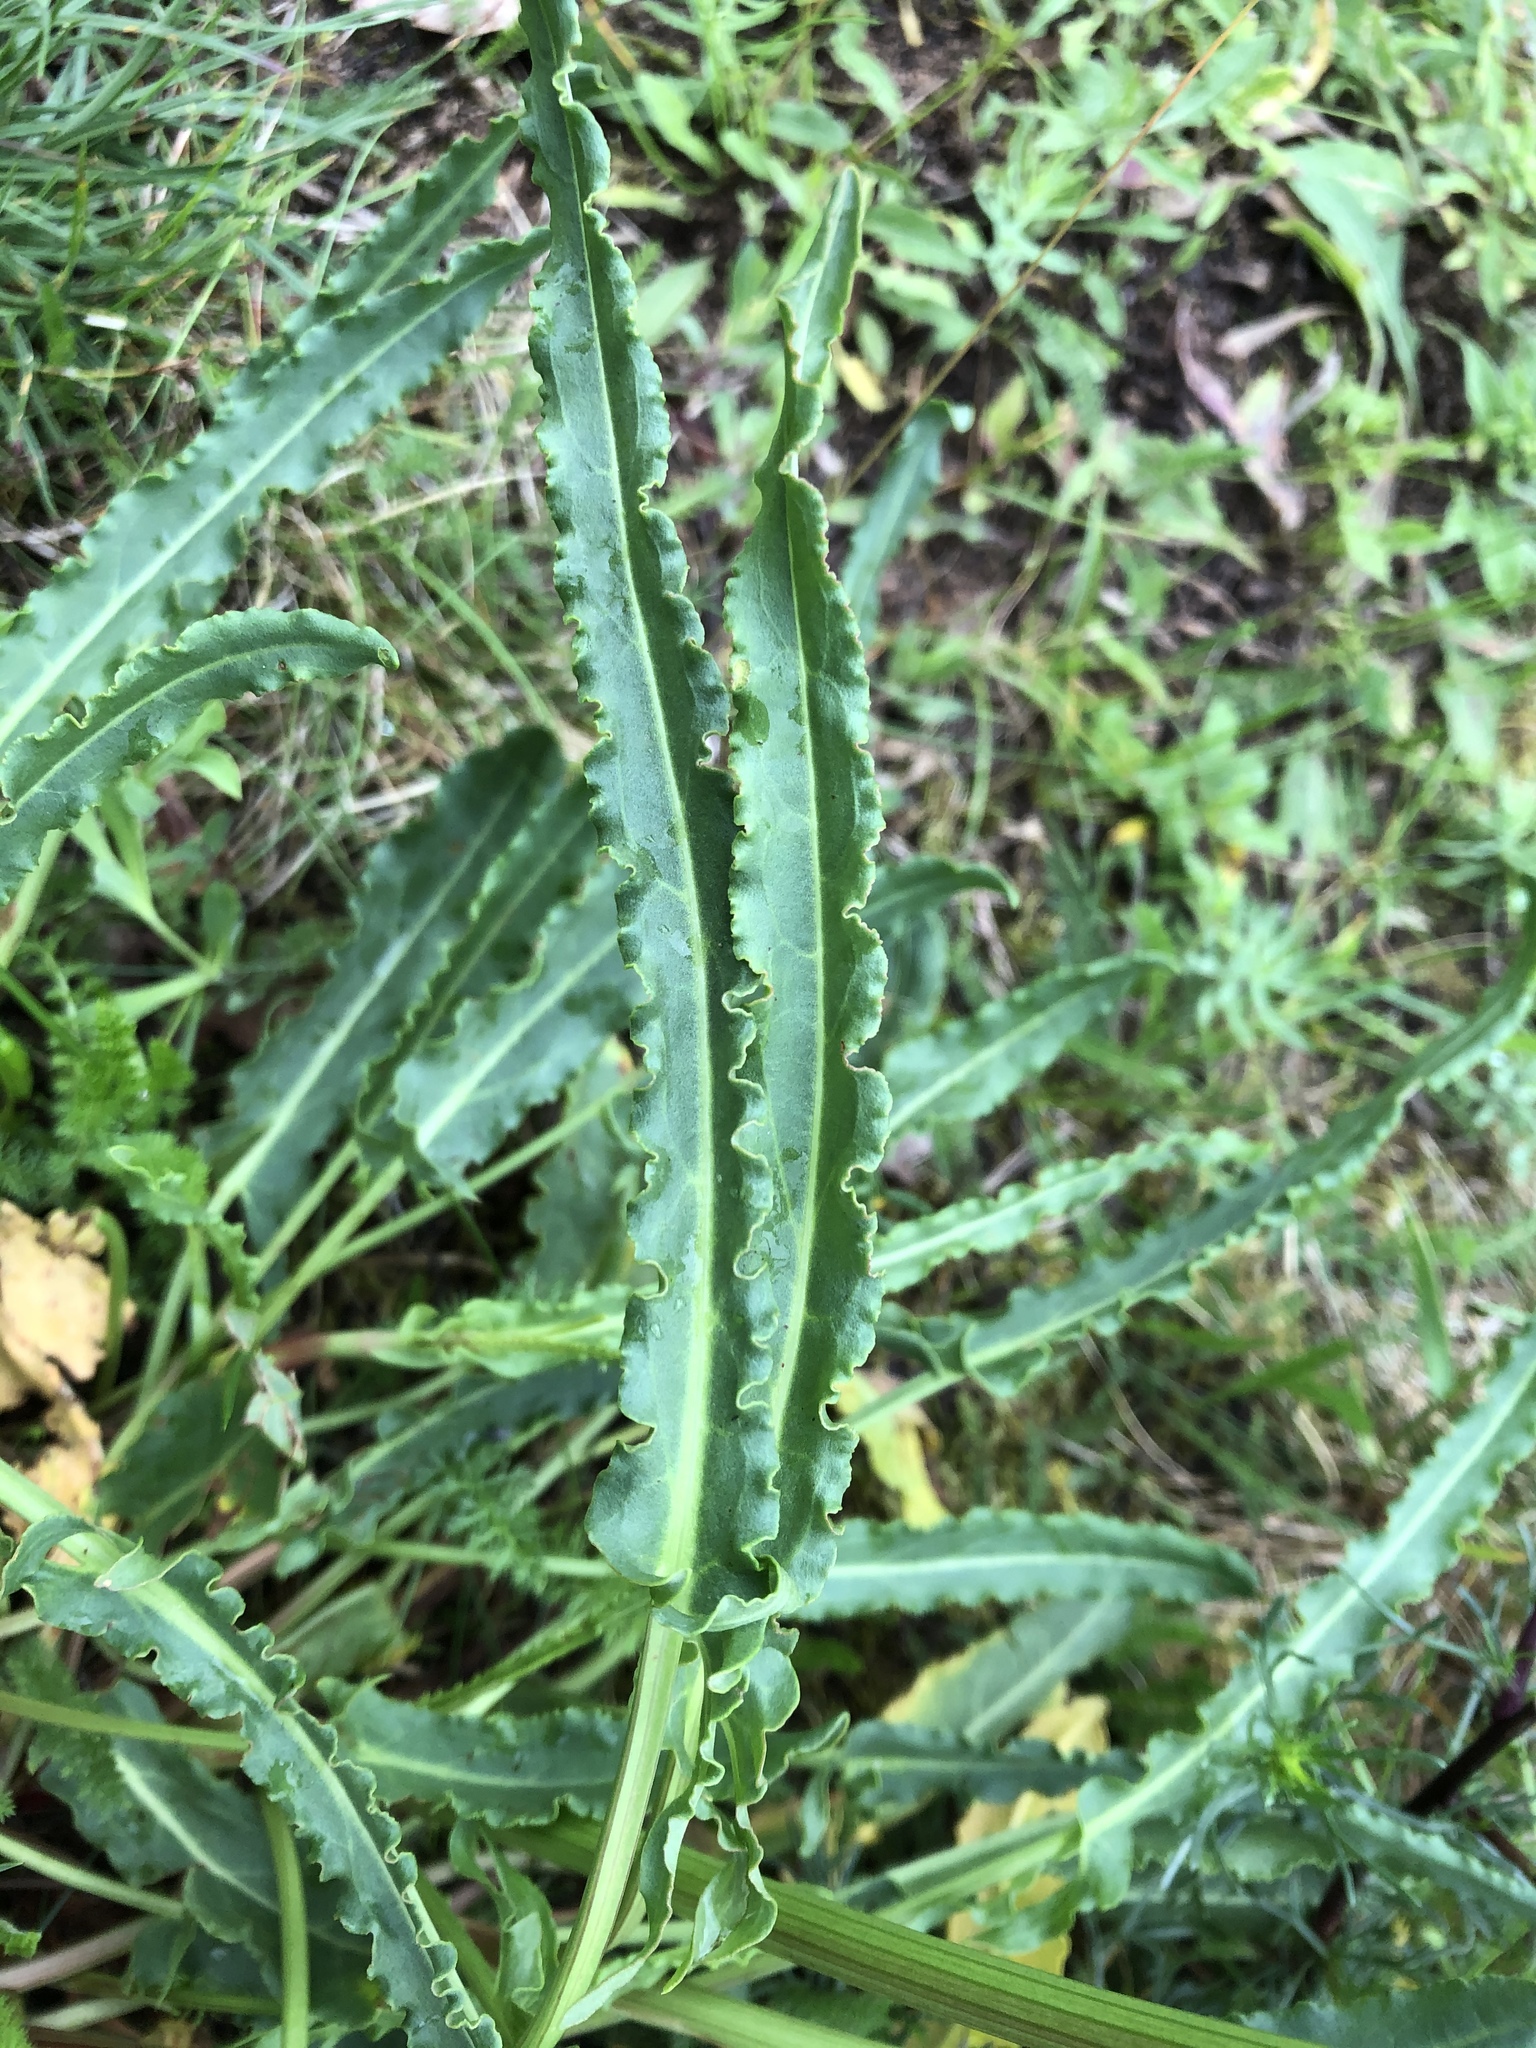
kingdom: Plantae
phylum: Tracheophyta
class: Magnoliopsida
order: Caryophyllales
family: Polygonaceae
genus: Rumex
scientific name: Rumex crispus
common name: Curled dock
